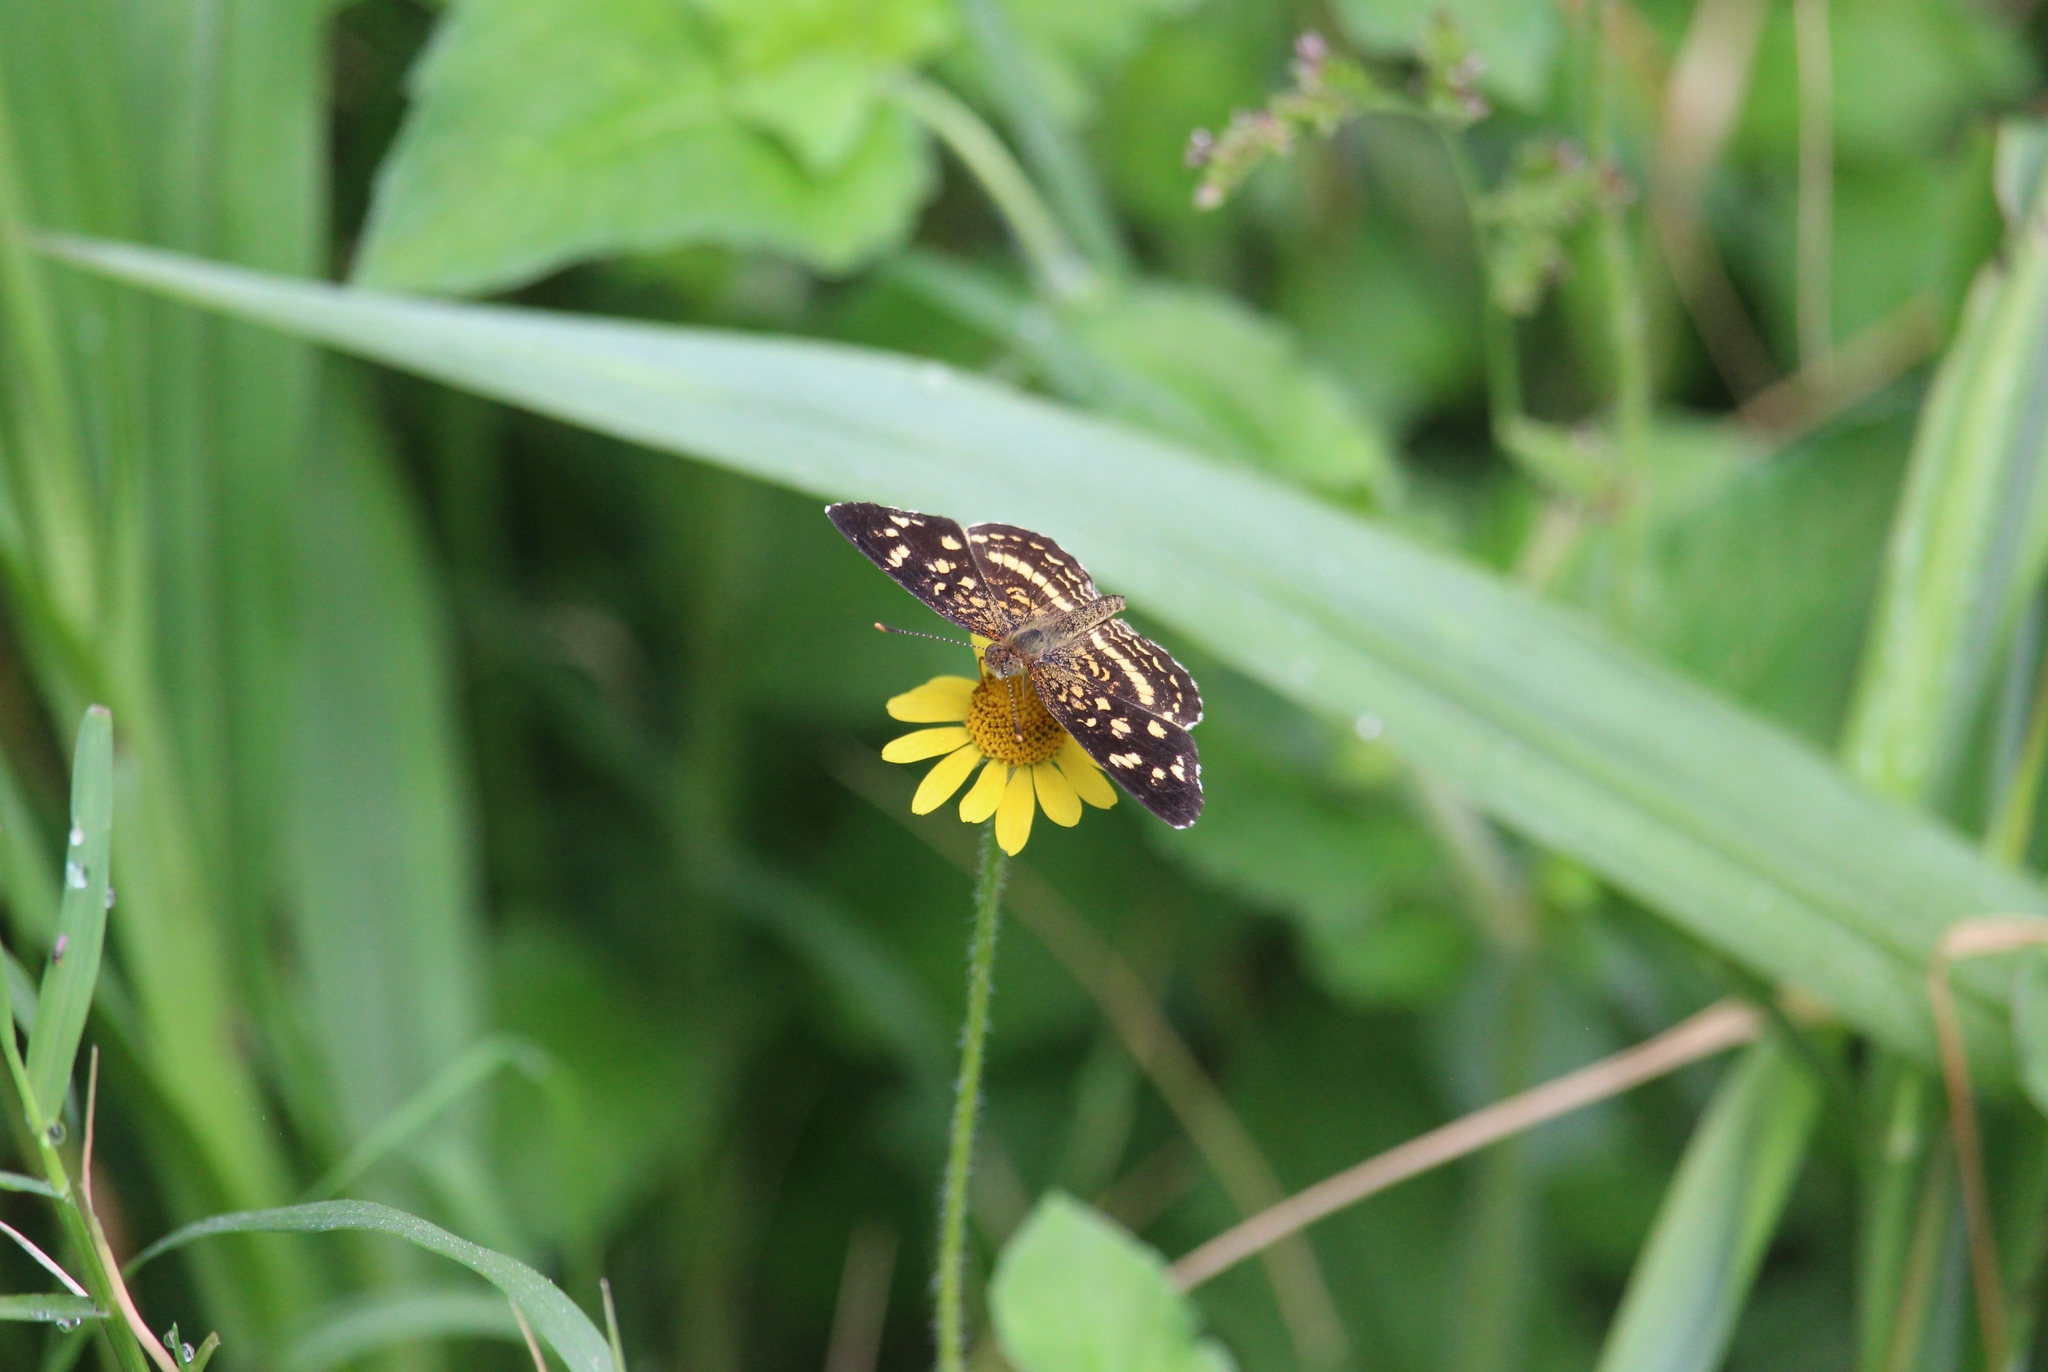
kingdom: Animalia
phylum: Arthropoda
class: Insecta
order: Lepidoptera
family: Nymphalidae
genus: Anthanassa
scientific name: Anthanassa tulcis
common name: Pale-banded crescent
